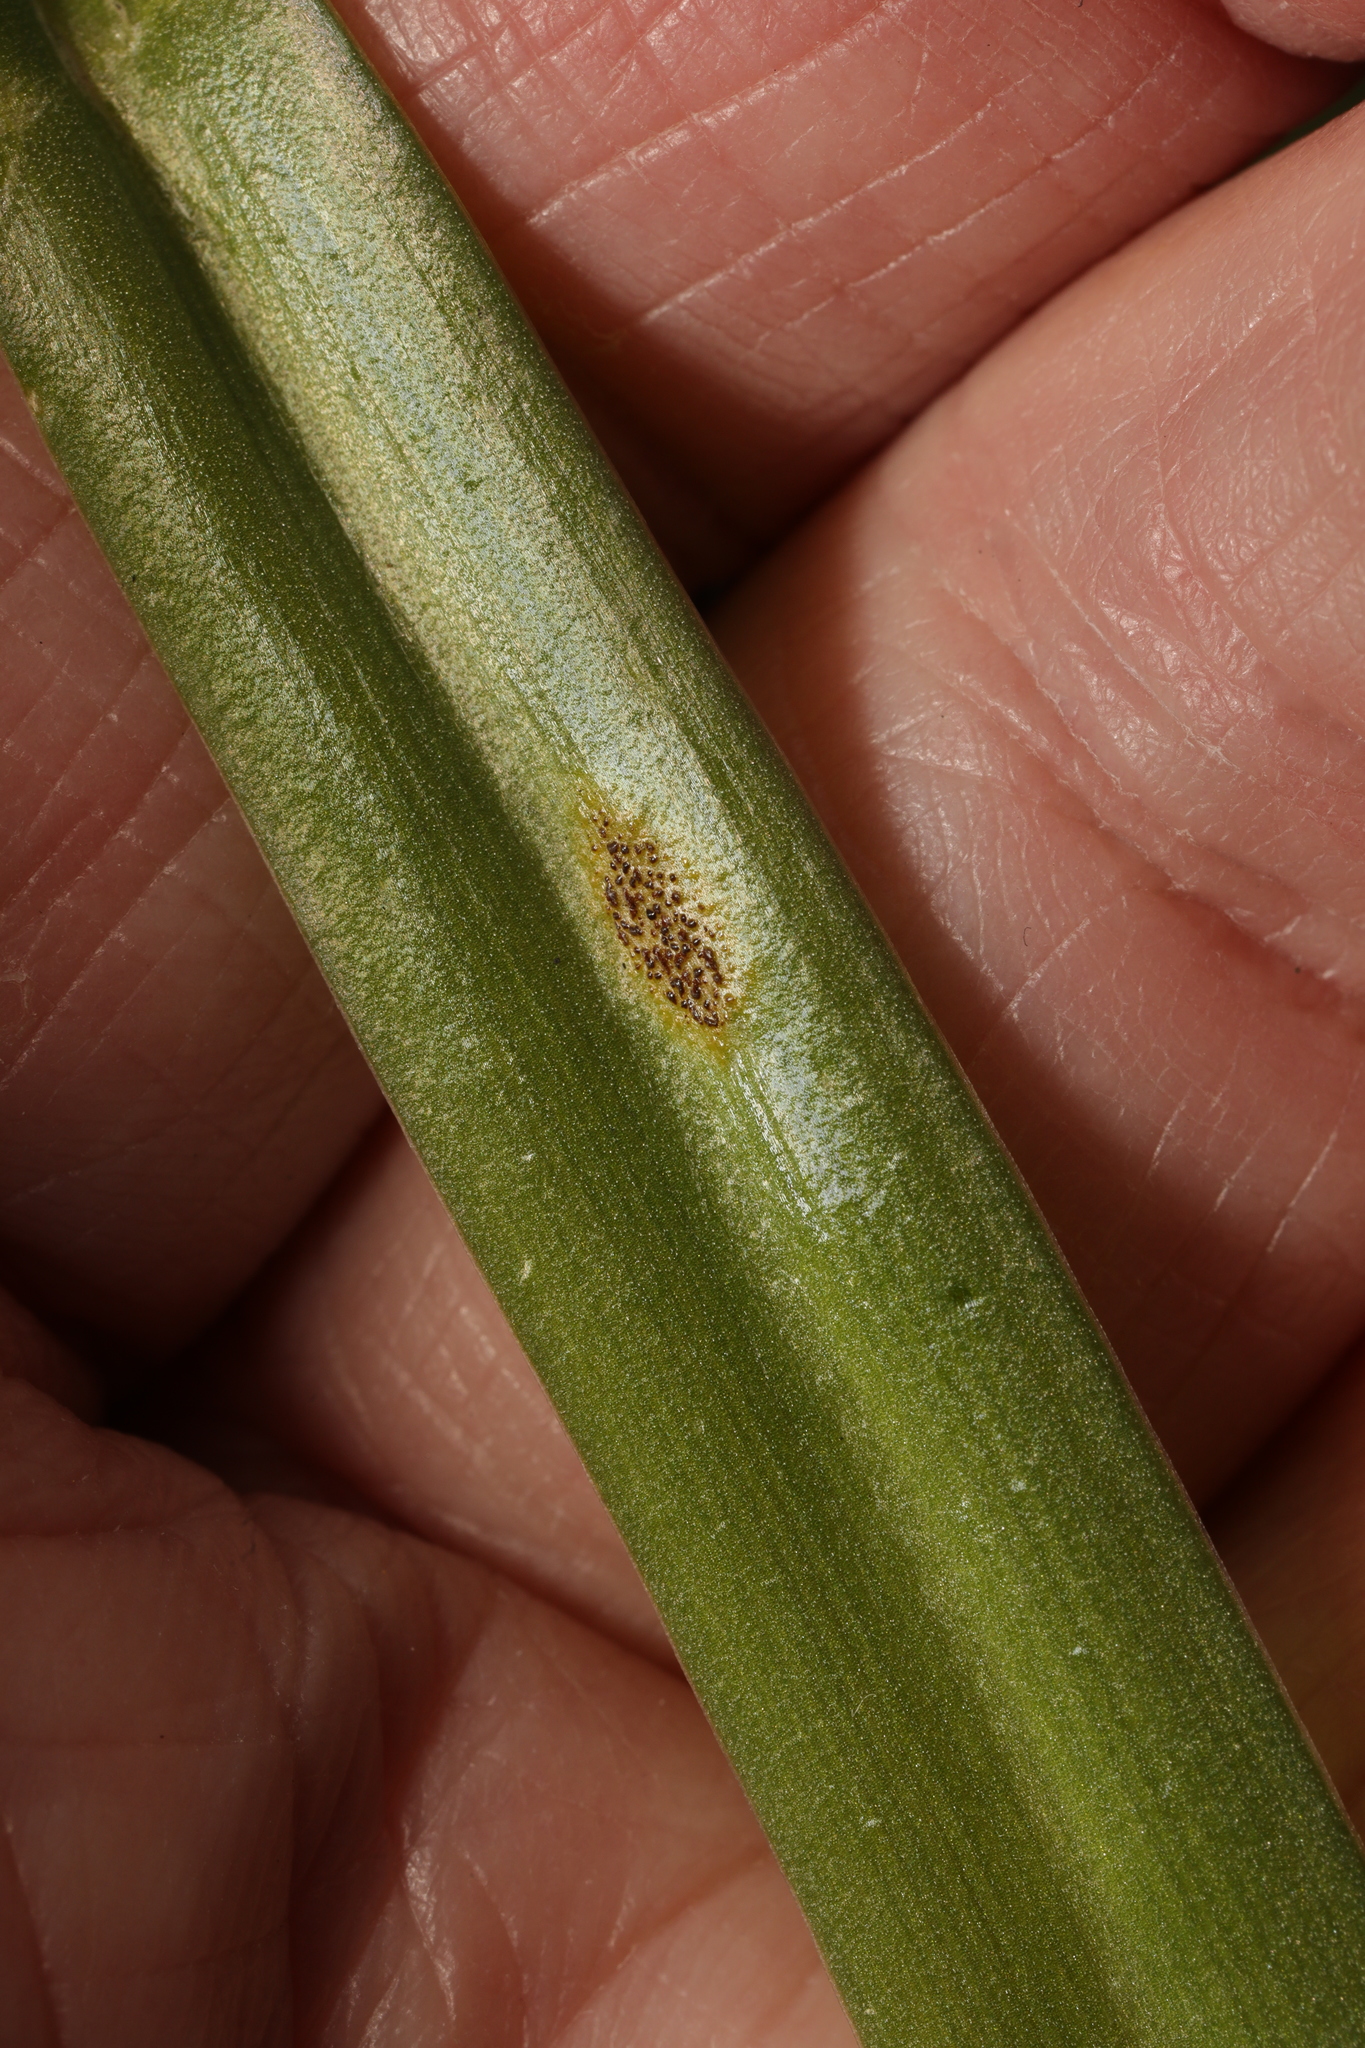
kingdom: Fungi
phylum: Basidiomycota
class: Pucciniomycetes
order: Pucciniales
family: Pucciniaceae
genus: Uromyces
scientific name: Uromyces hyacinthi
